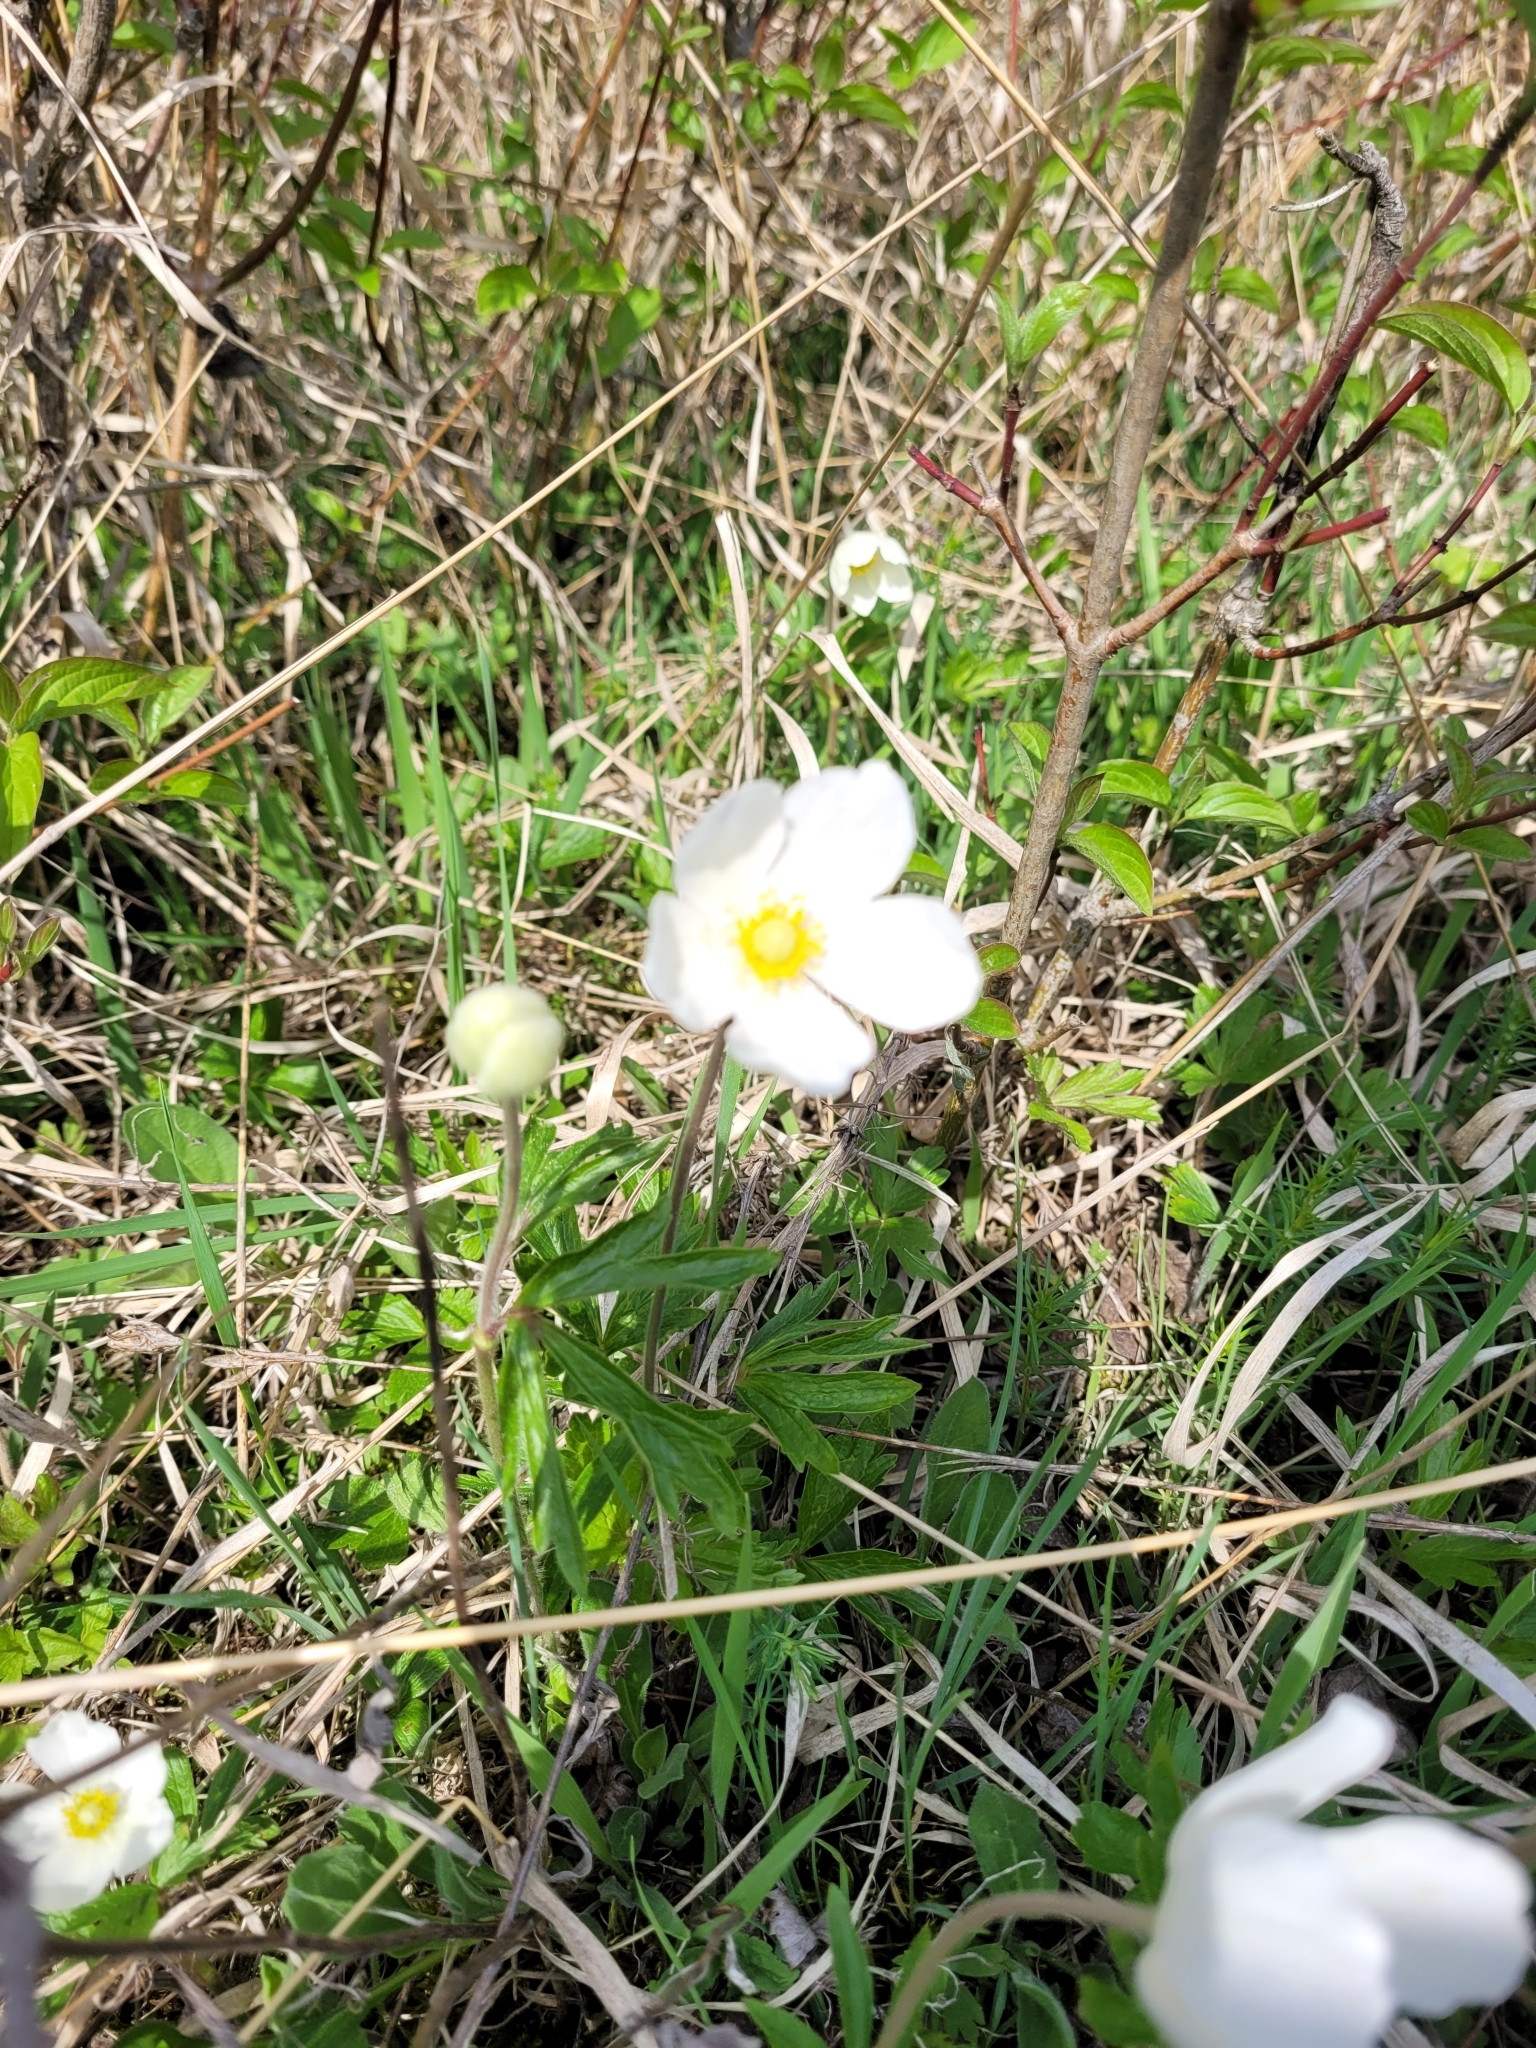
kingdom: Plantae
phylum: Tracheophyta
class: Magnoliopsida
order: Ranunculales
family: Ranunculaceae
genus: Anemone
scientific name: Anemone sylvestris
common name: Snowdrop anemone
